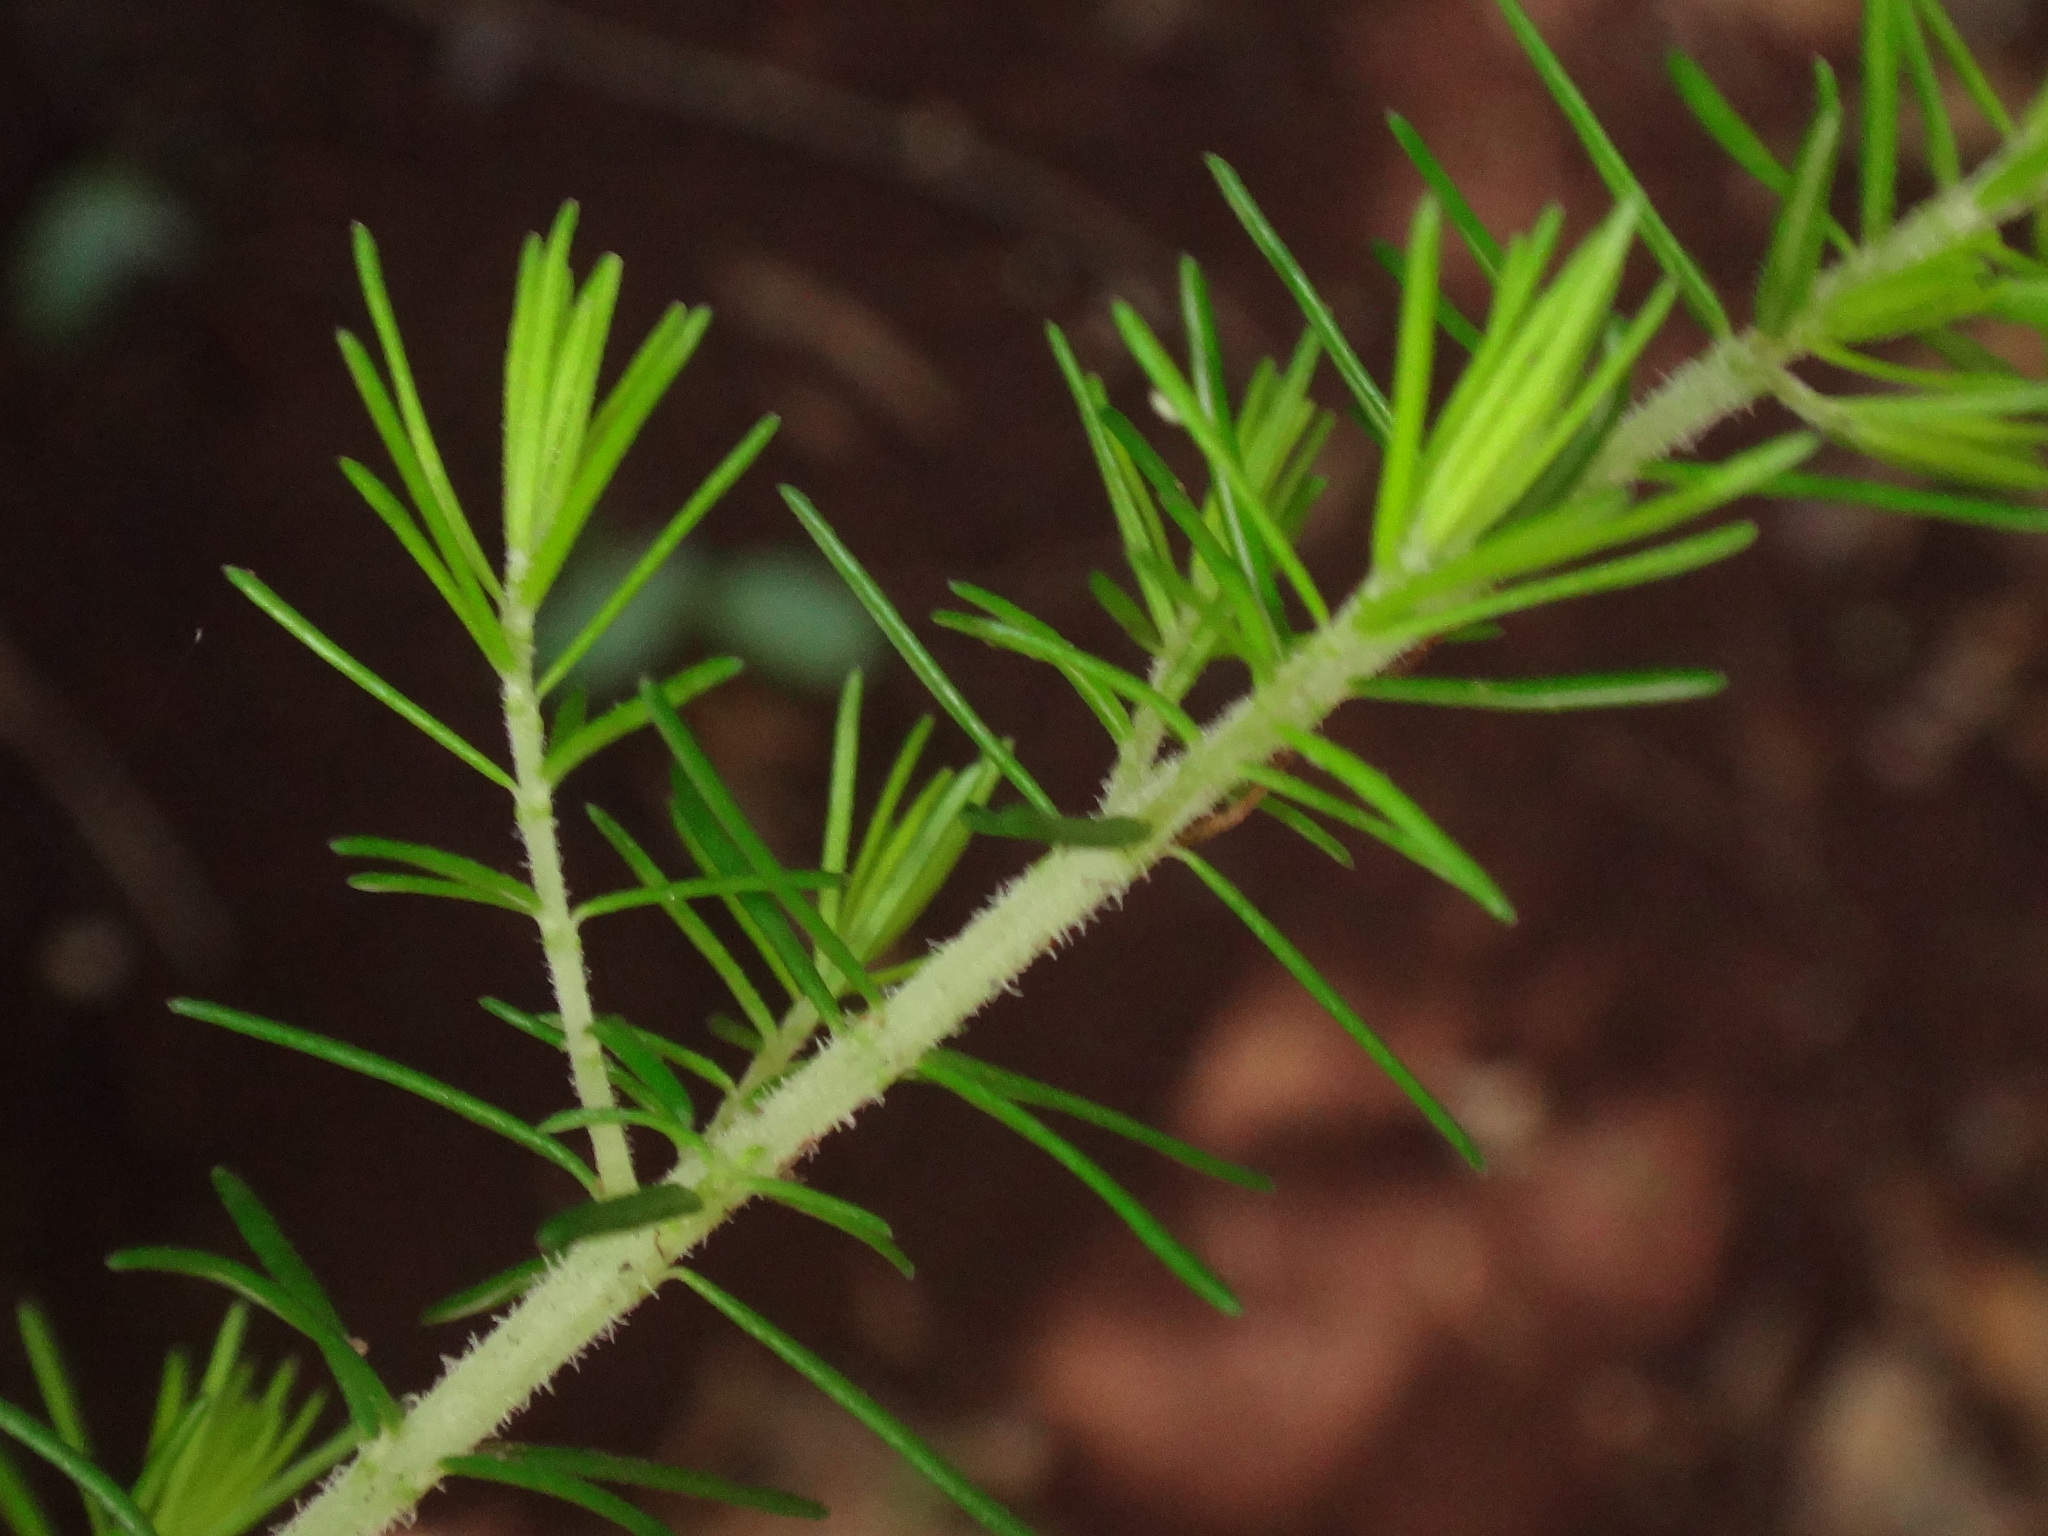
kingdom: Plantae
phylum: Tracheophyta
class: Magnoliopsida
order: Ericales
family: Ericaceae
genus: Erica
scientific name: Erica canariensis
